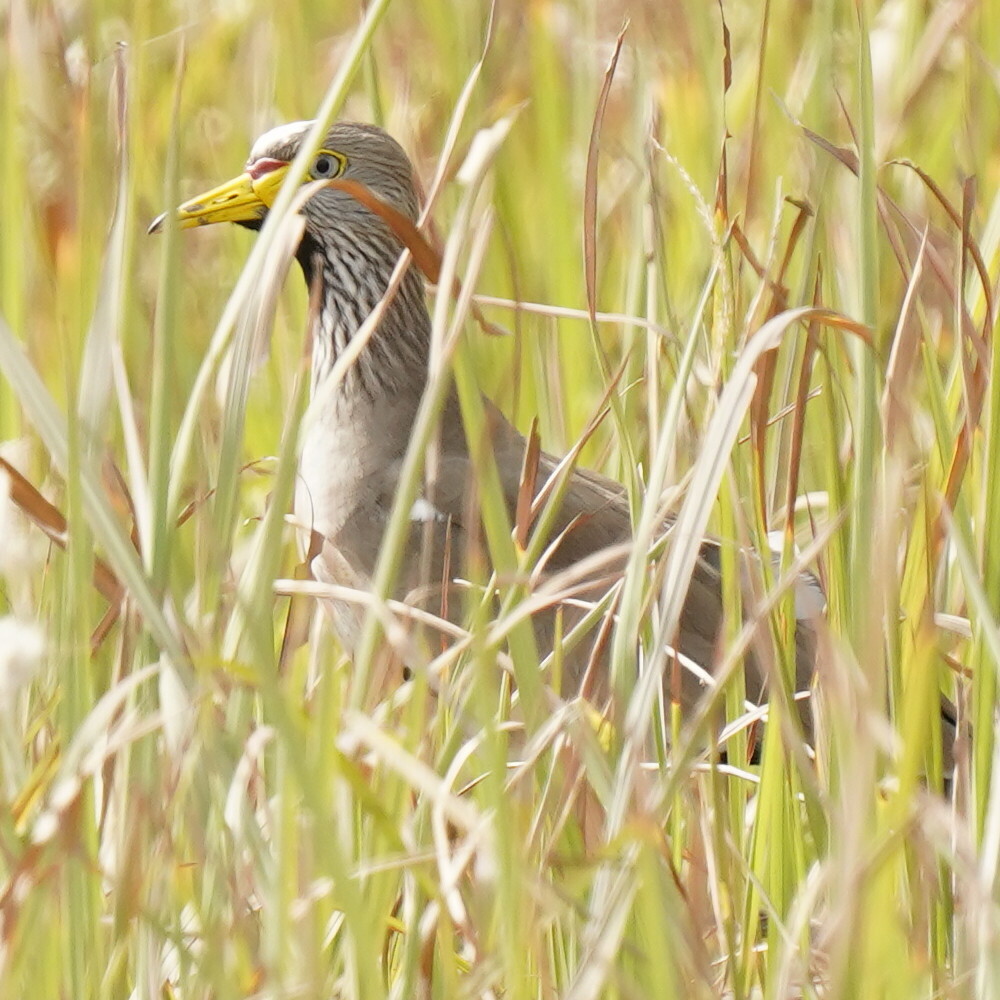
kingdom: Animalia
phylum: Chordata
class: Aves
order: Charadriiformes
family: Charadriidae
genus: Vanellus
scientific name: Vanellus senegallus
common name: African wattled lapwing
